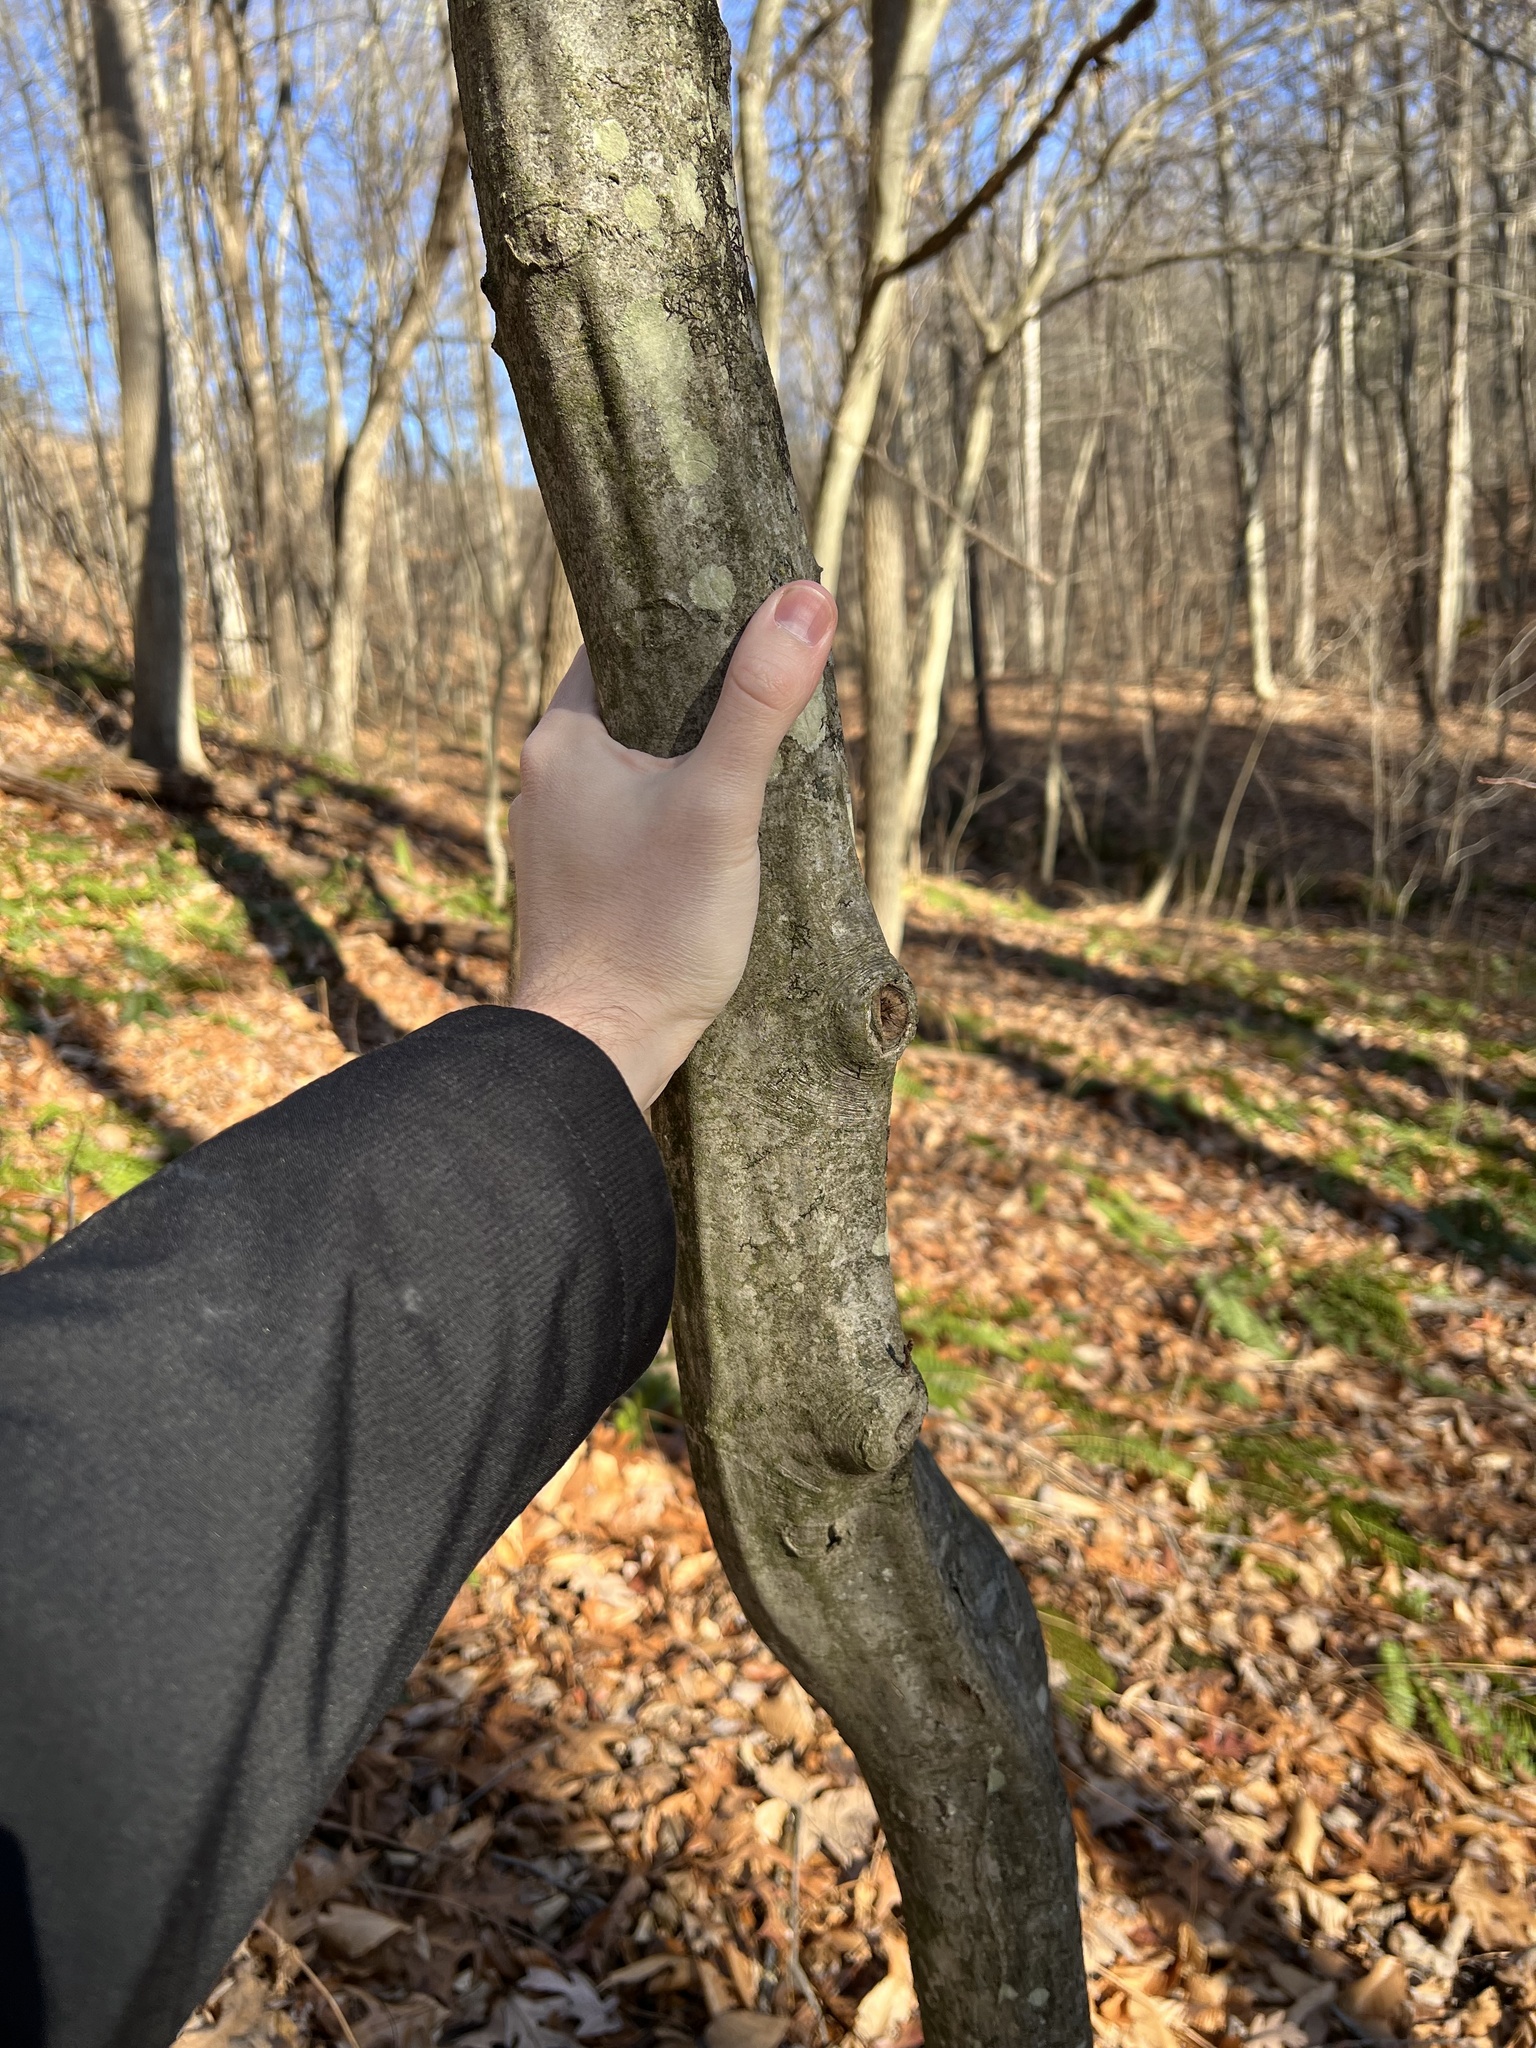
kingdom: Plantae
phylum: Tracheophyta
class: Magnoliopsida
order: Fagales
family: Betulaceae
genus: Carpinus
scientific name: Carpinus caroliniana
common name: American hornbeam
